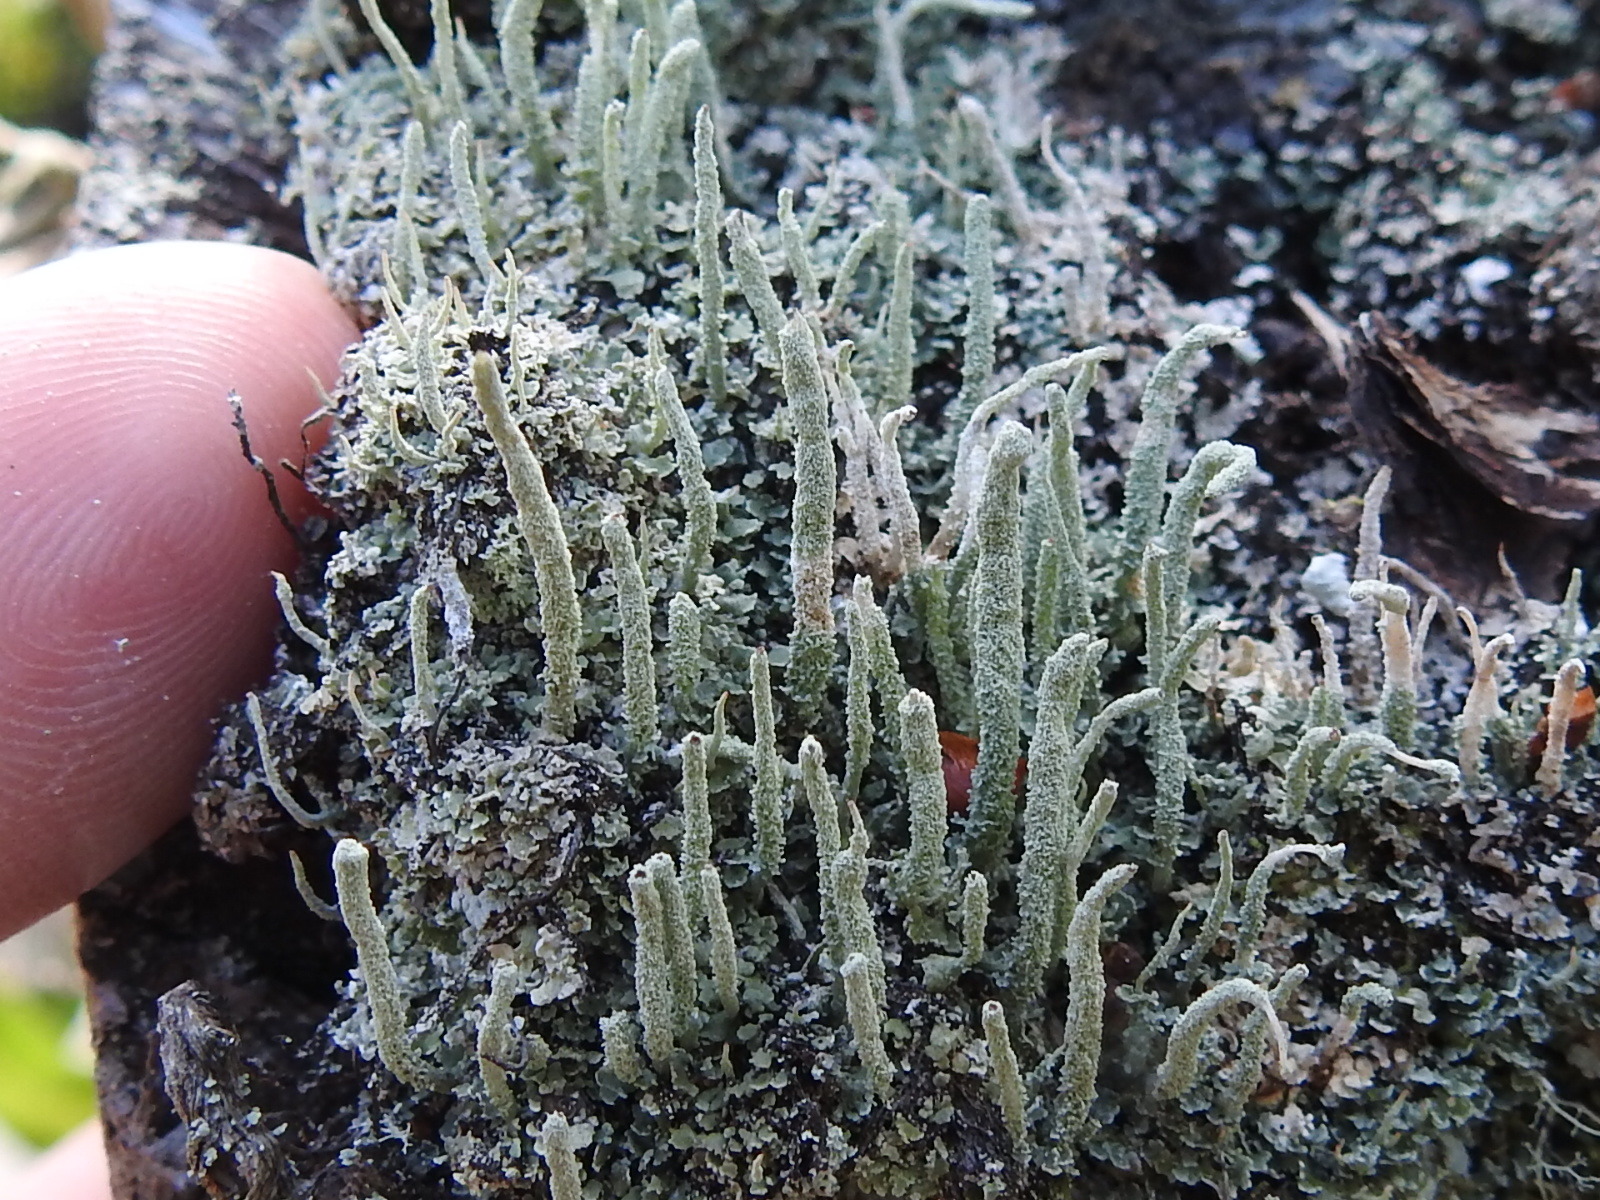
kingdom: Fungi
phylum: Ascomycota
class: Lecanoromycetes
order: Lecanorales
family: Cladoniaceae
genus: Cladonia
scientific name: Cladonia subradiata
